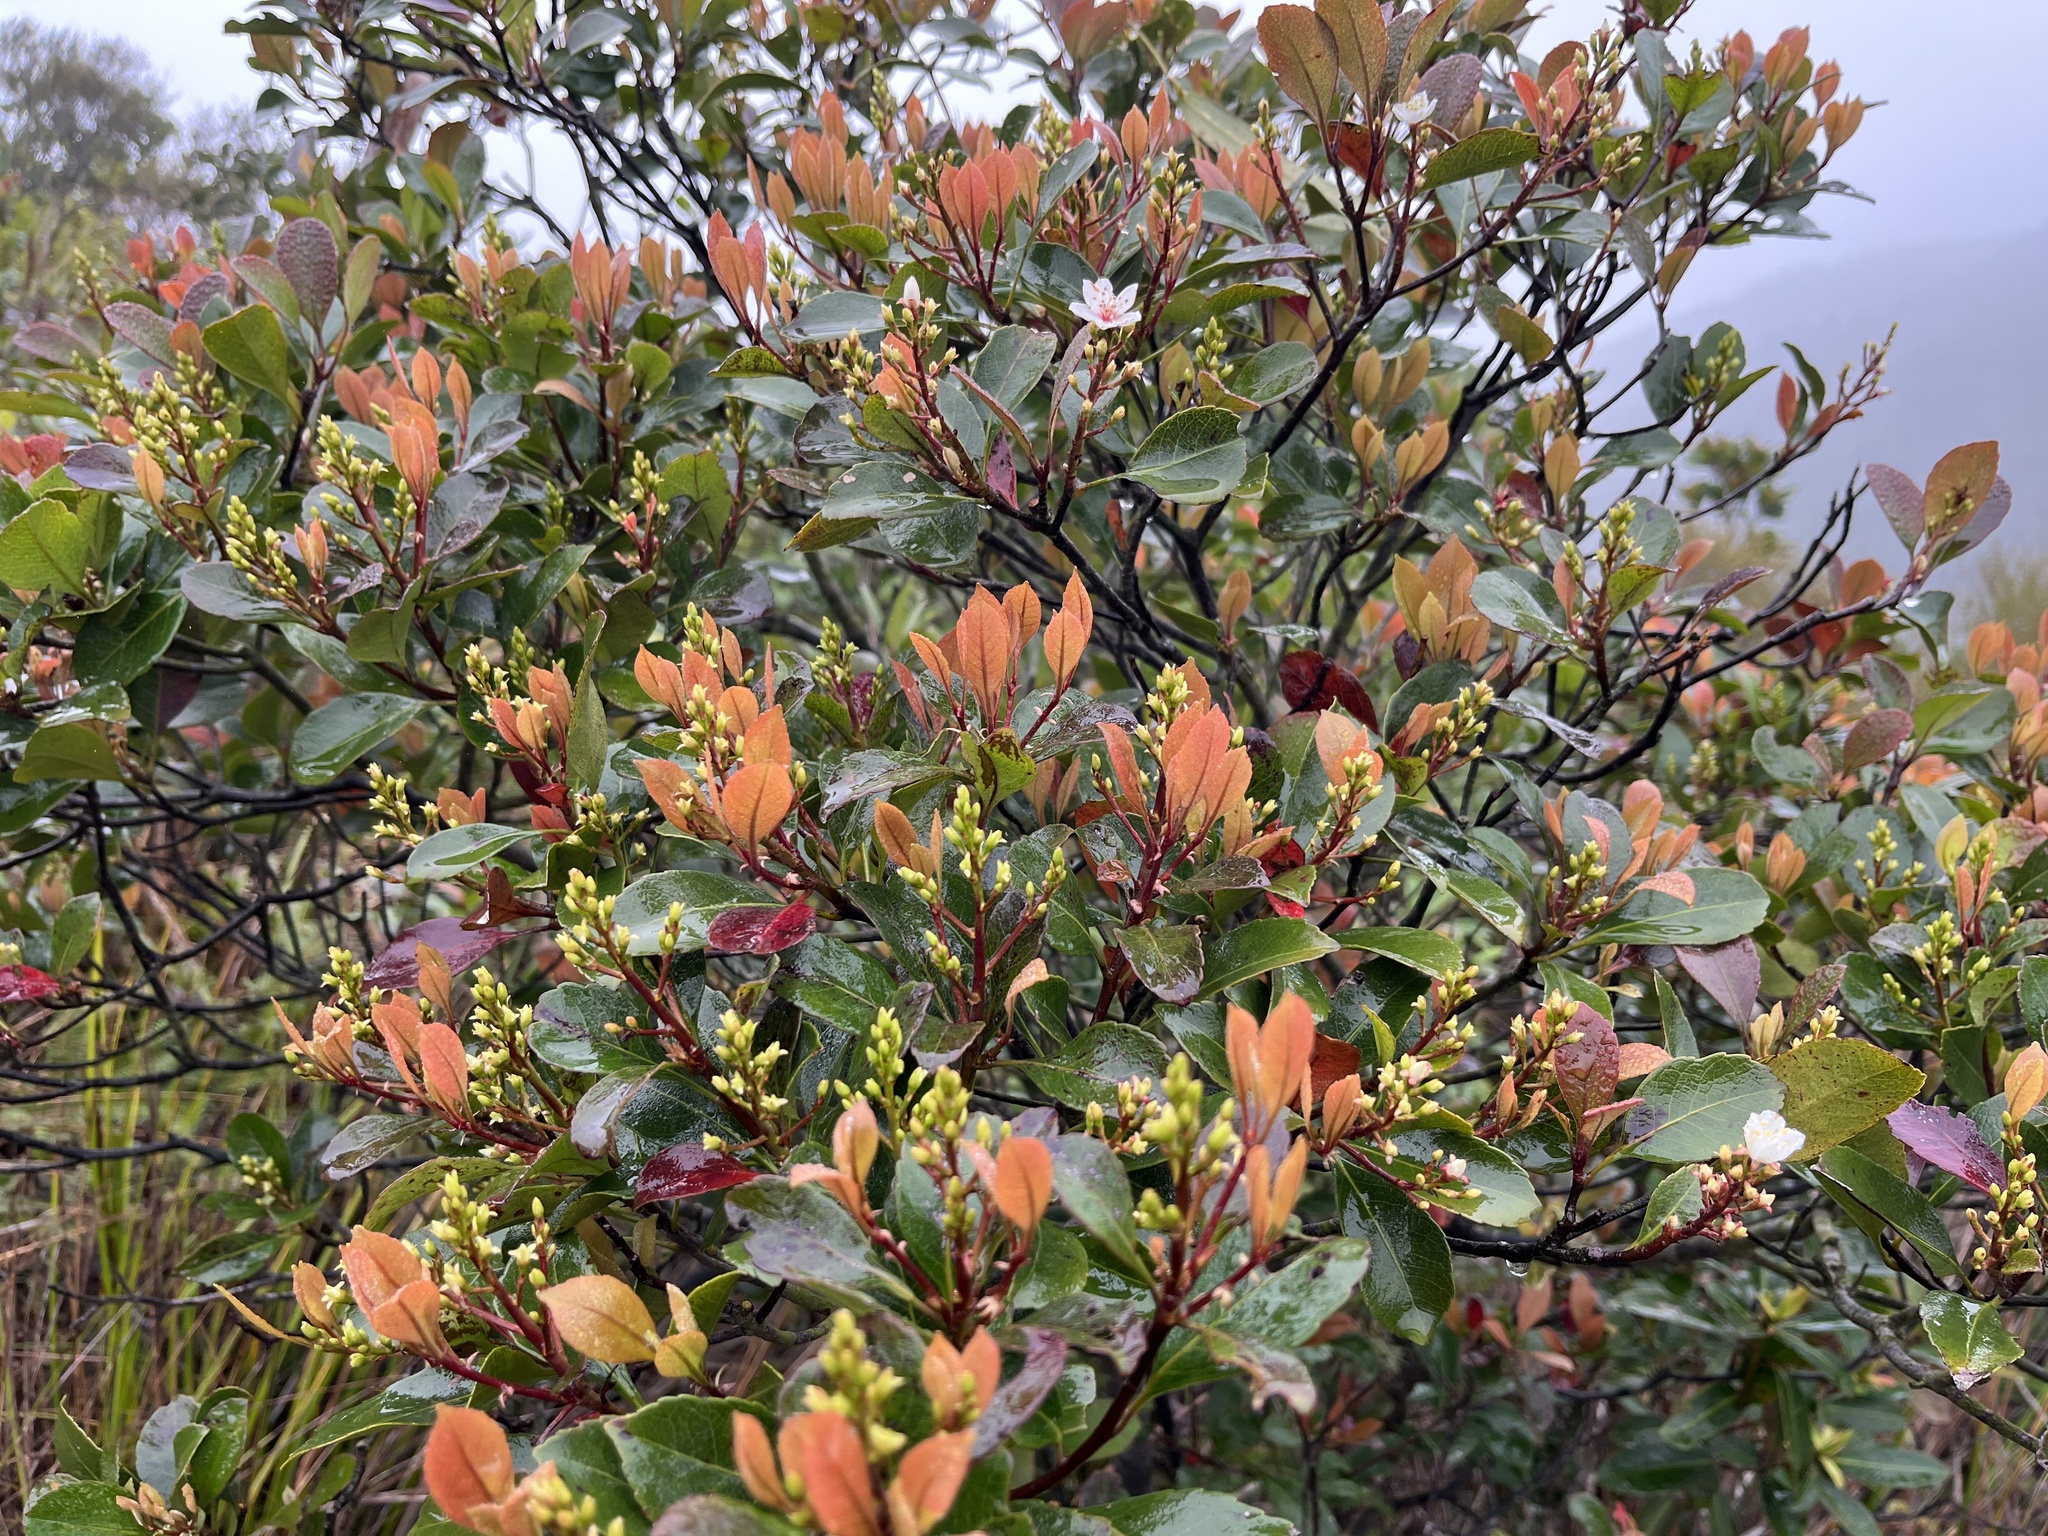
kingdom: Plantae
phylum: Tracheophyta
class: Magnoliopsida
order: Rosales
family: Rosaceae
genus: Rhaphiolepis
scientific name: Rhaphiolepis indica
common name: India-hawthorn
